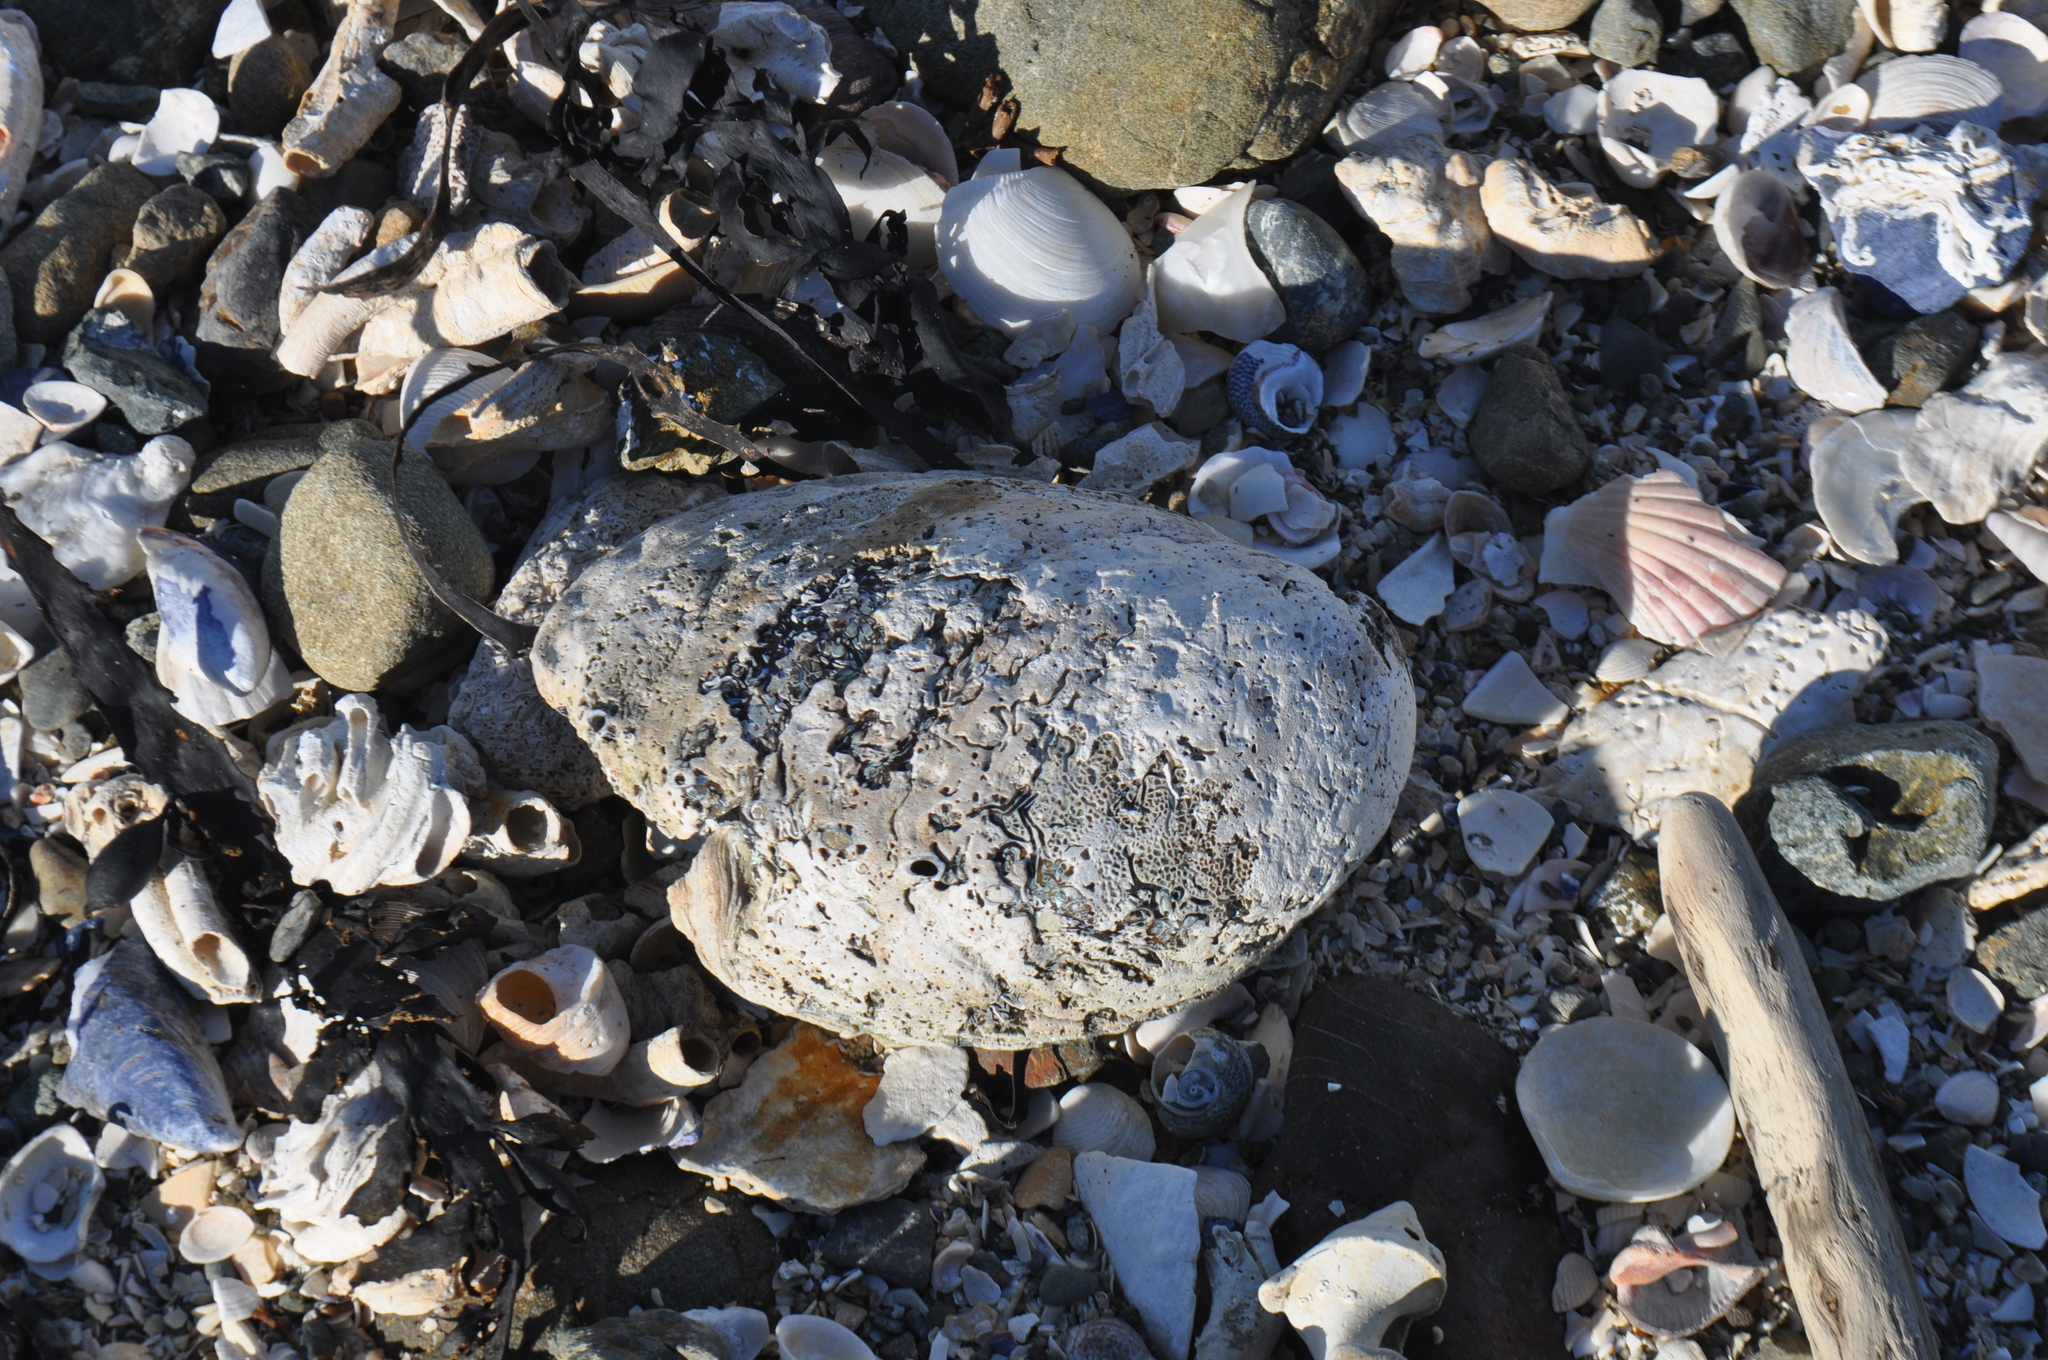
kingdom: Animalia
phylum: Mollusca
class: Gastropoda
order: Lepetellida
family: Haliotidae
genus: Haliotis
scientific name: Haliotis iris
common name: Abalone
